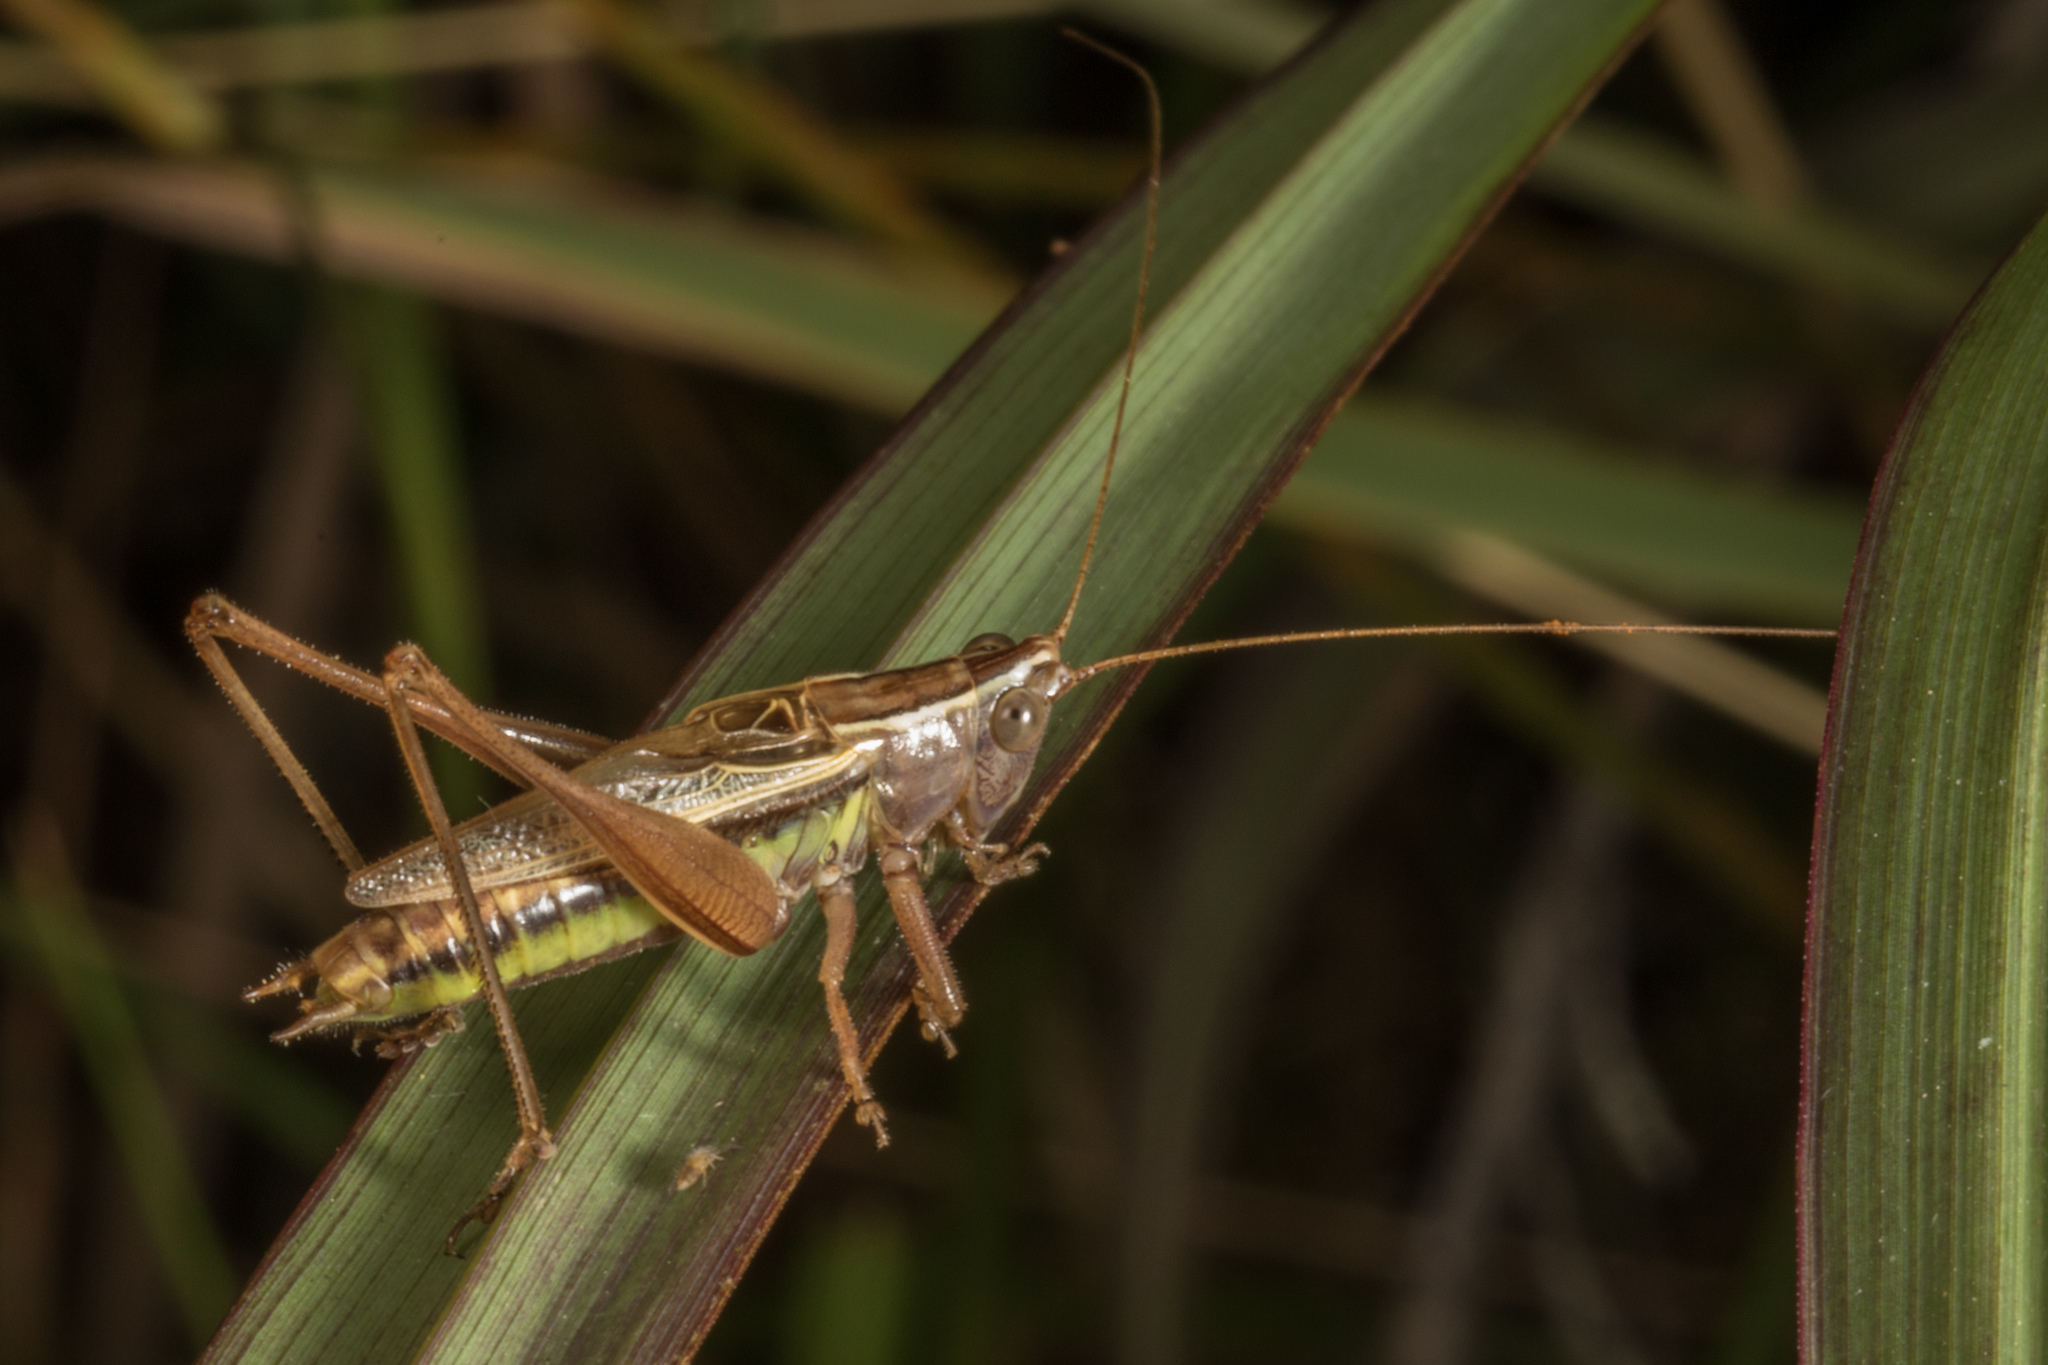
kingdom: Animalia
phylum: Arthropoda
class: Insecta
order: Orthoptera
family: Tettigoniidae
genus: Conocephalus
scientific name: Conocephalus albescens
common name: Whitish meadow katydid
